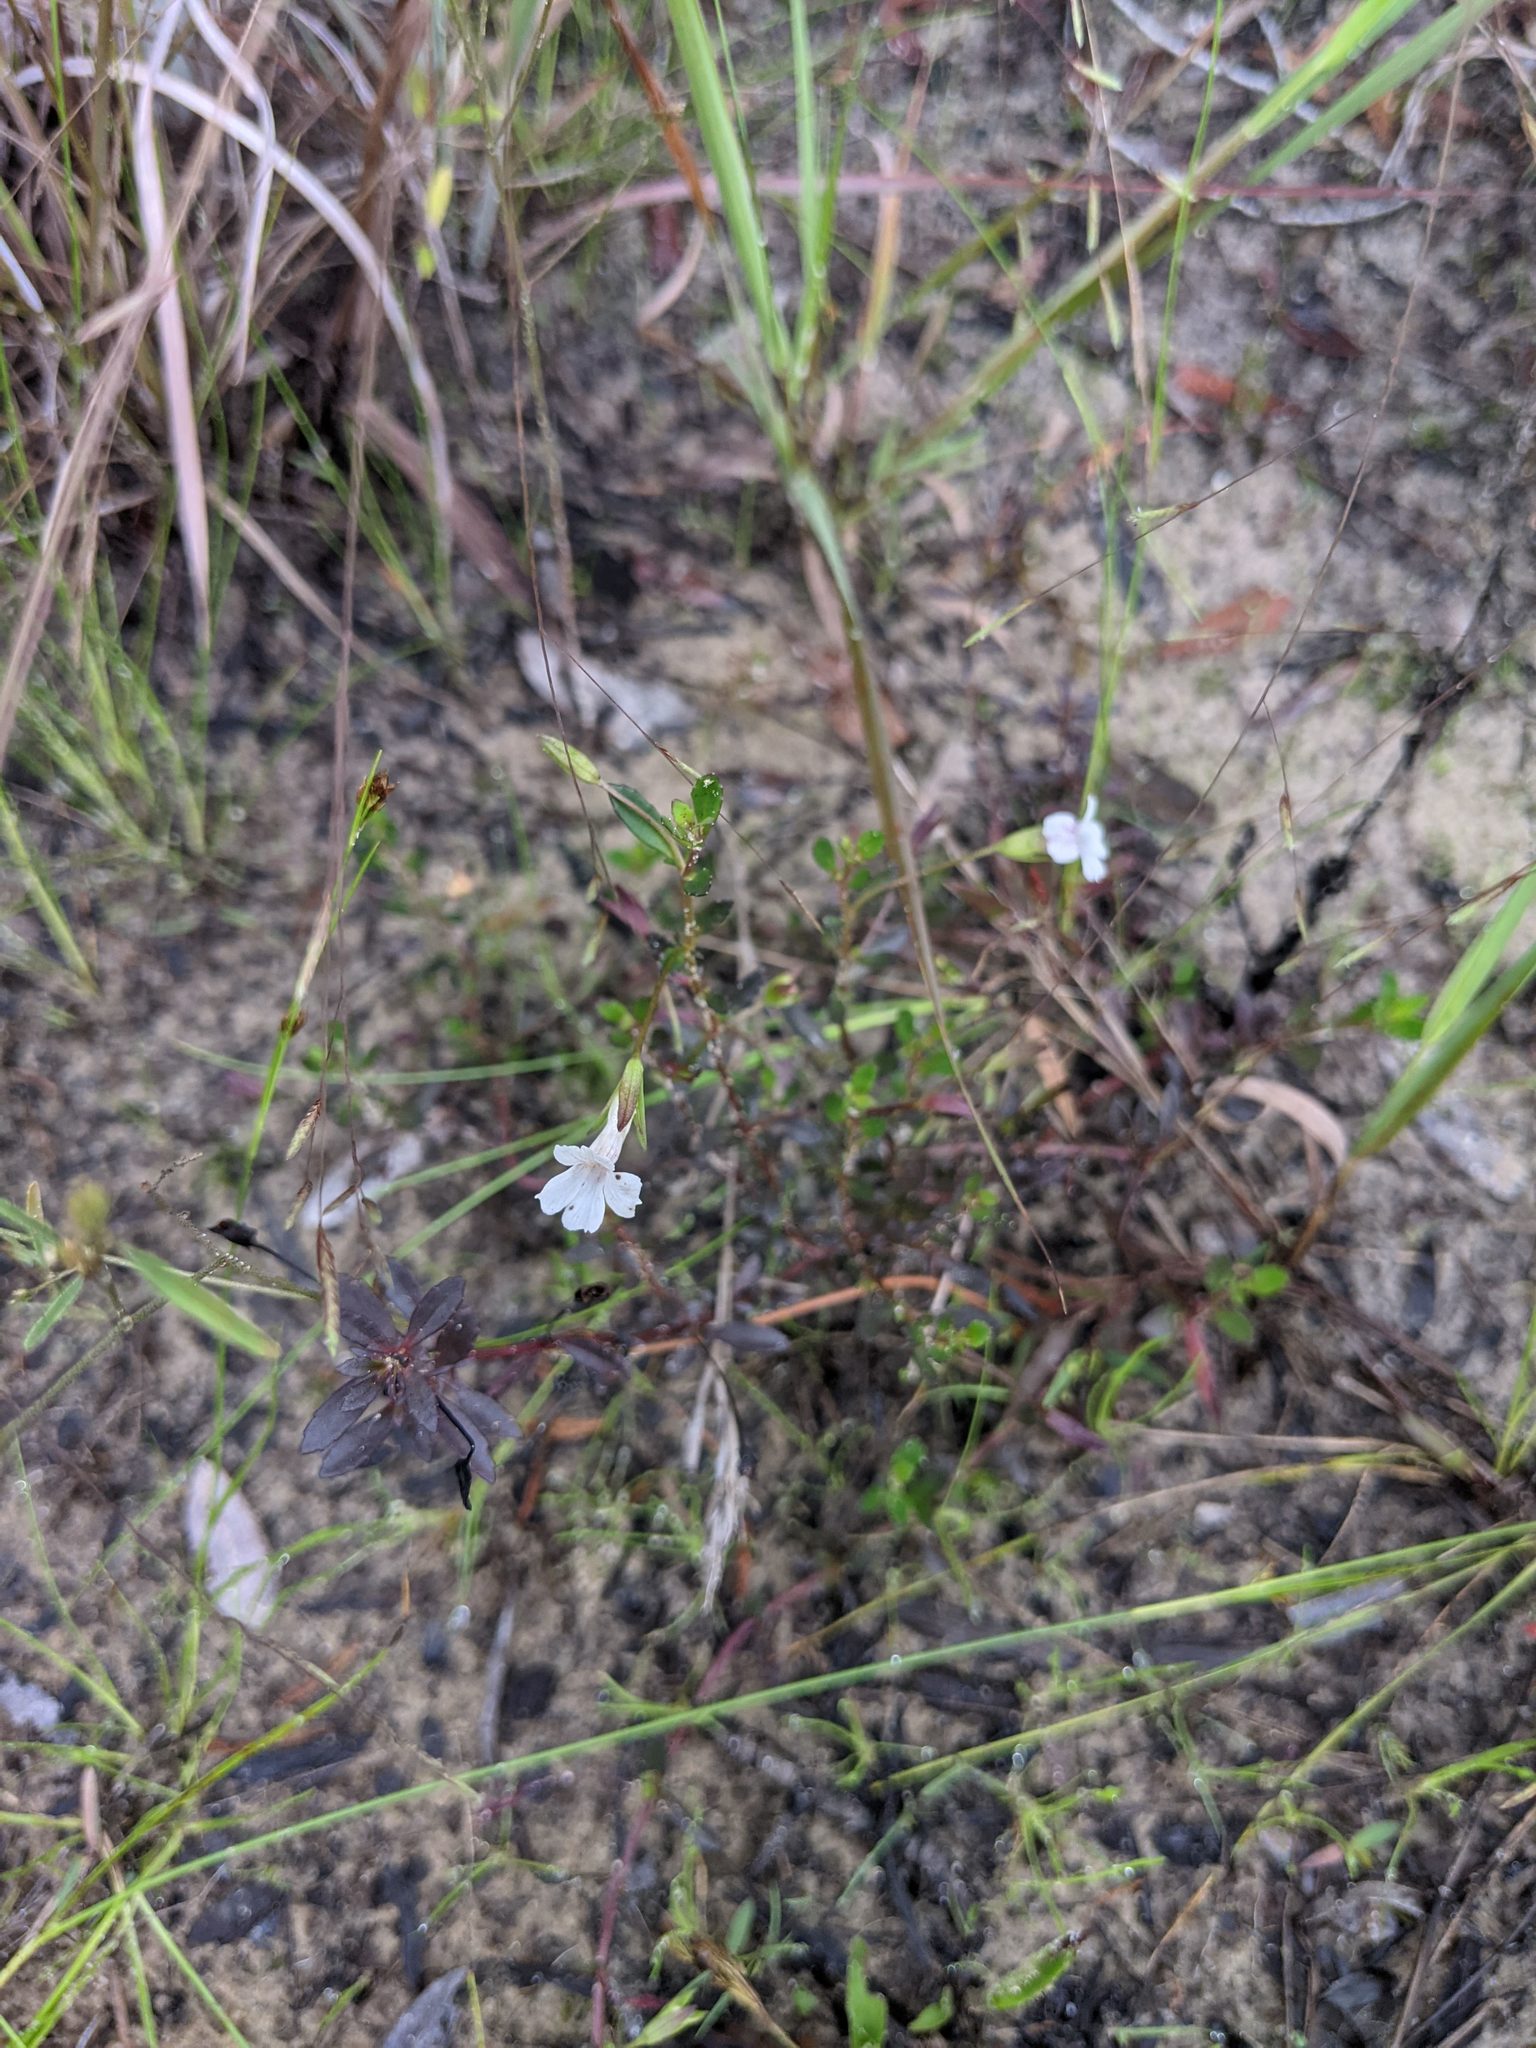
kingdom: Plantae
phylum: Tracheophyta
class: Magnoliopsida
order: Lamiales
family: Plantaginaceae
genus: Mecardonia
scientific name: Mecardonia acuminata
